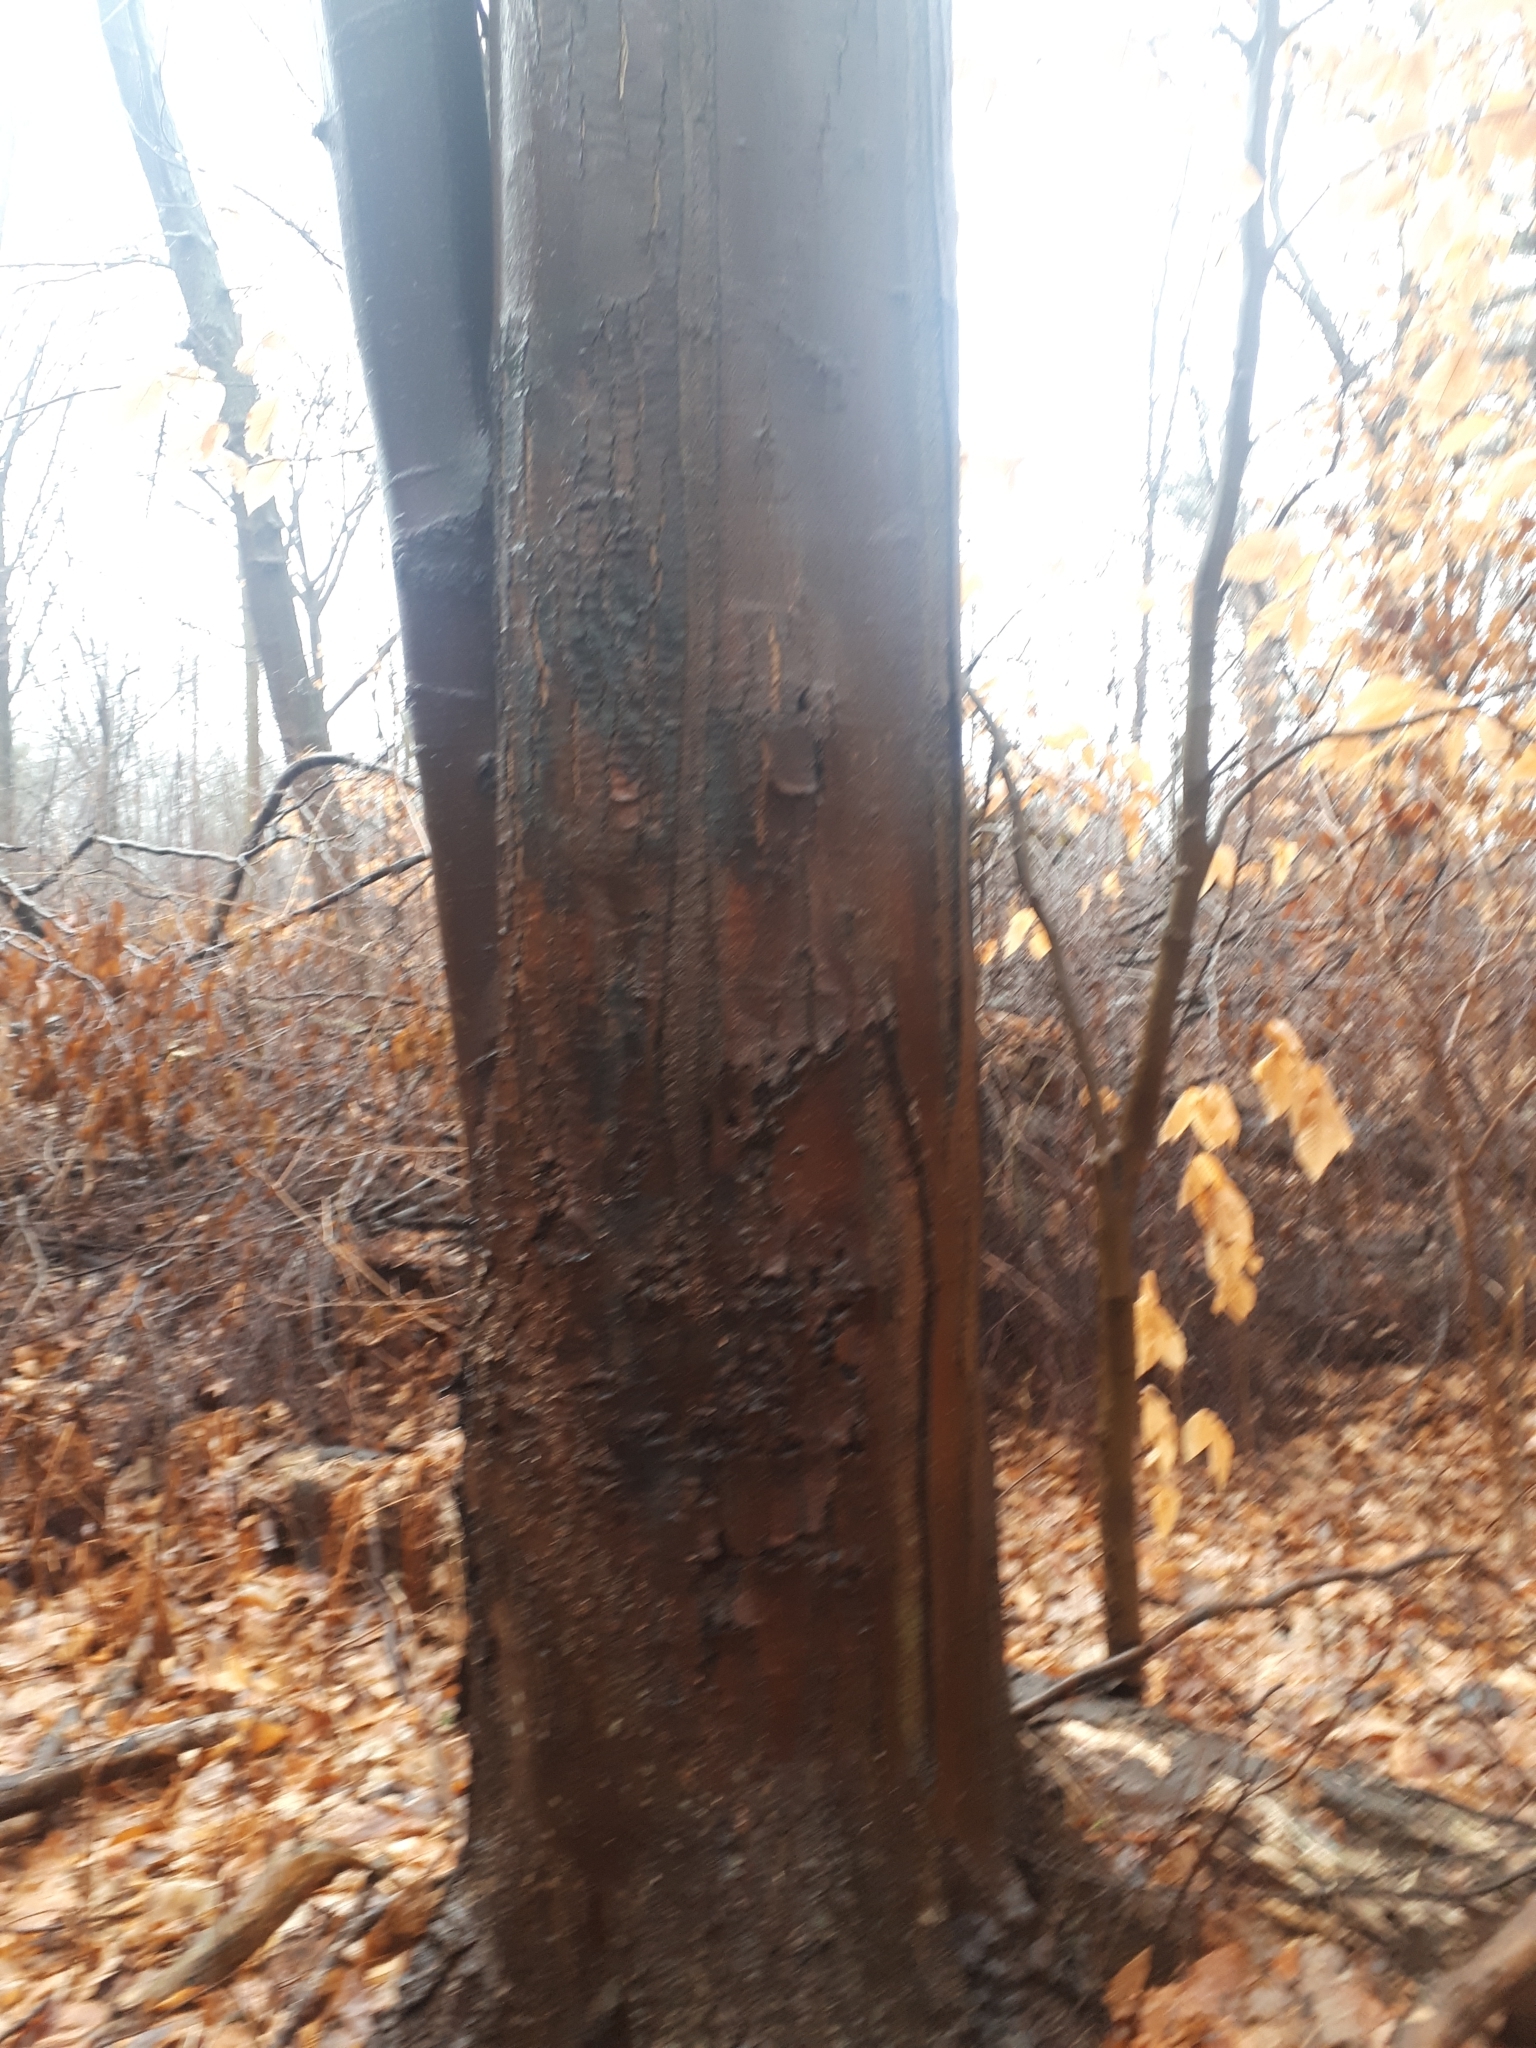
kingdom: Plantae
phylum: Tracheophyta
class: Magnoliopsida
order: Fagales
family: Fagaceae
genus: Fagus
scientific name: Fagus grandifolia
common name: American beech
